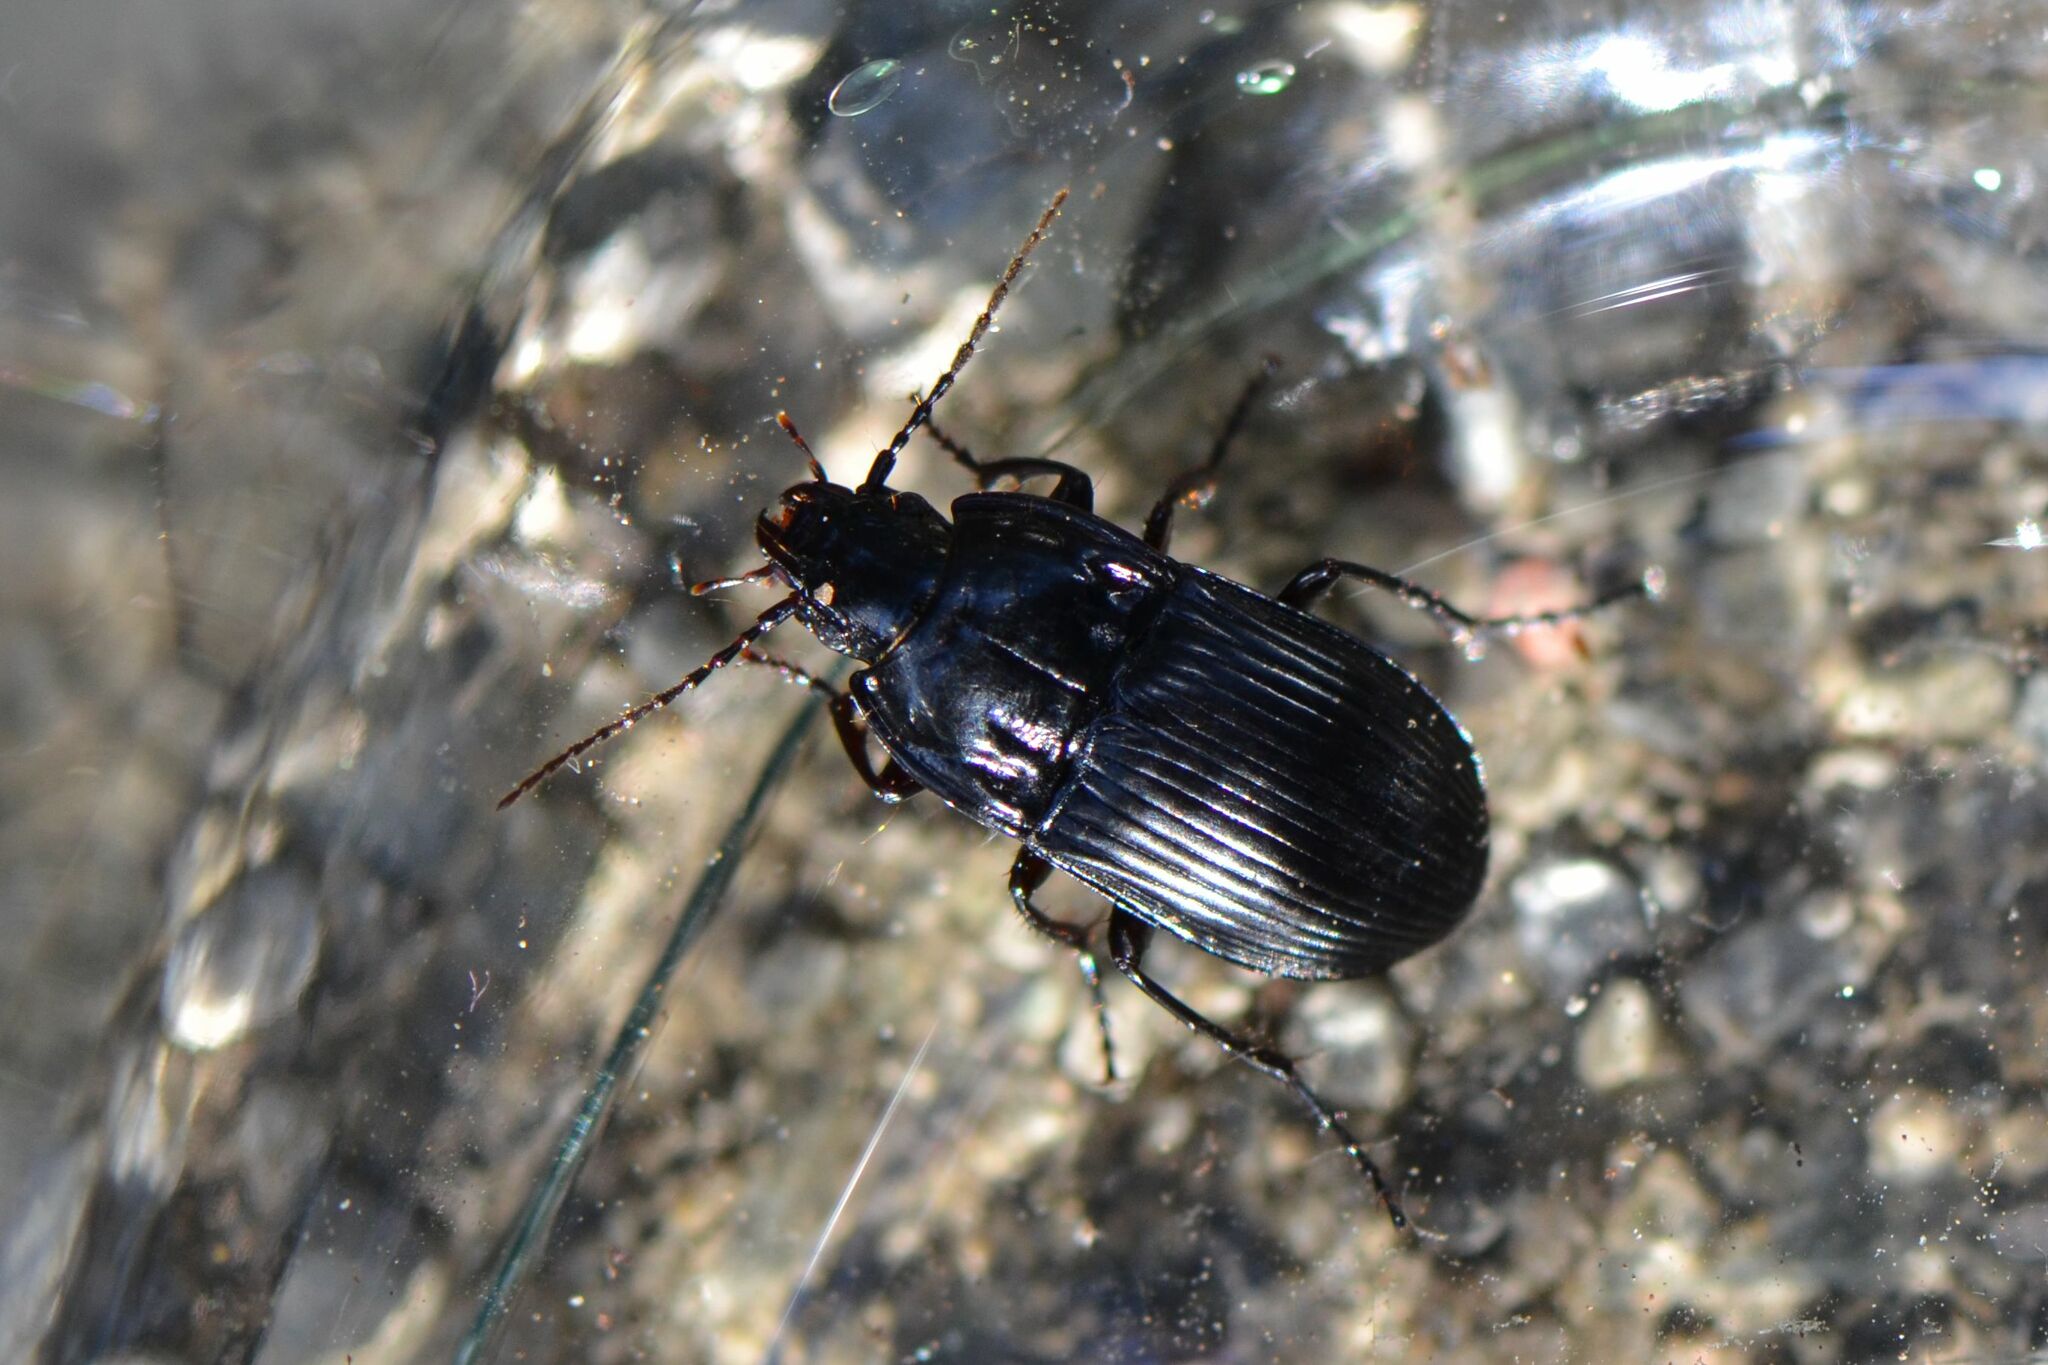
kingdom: Animalia
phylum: Arthropoda
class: Insecta
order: Coleoptera
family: Carabidae
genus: Abax
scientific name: Abax ovalis
